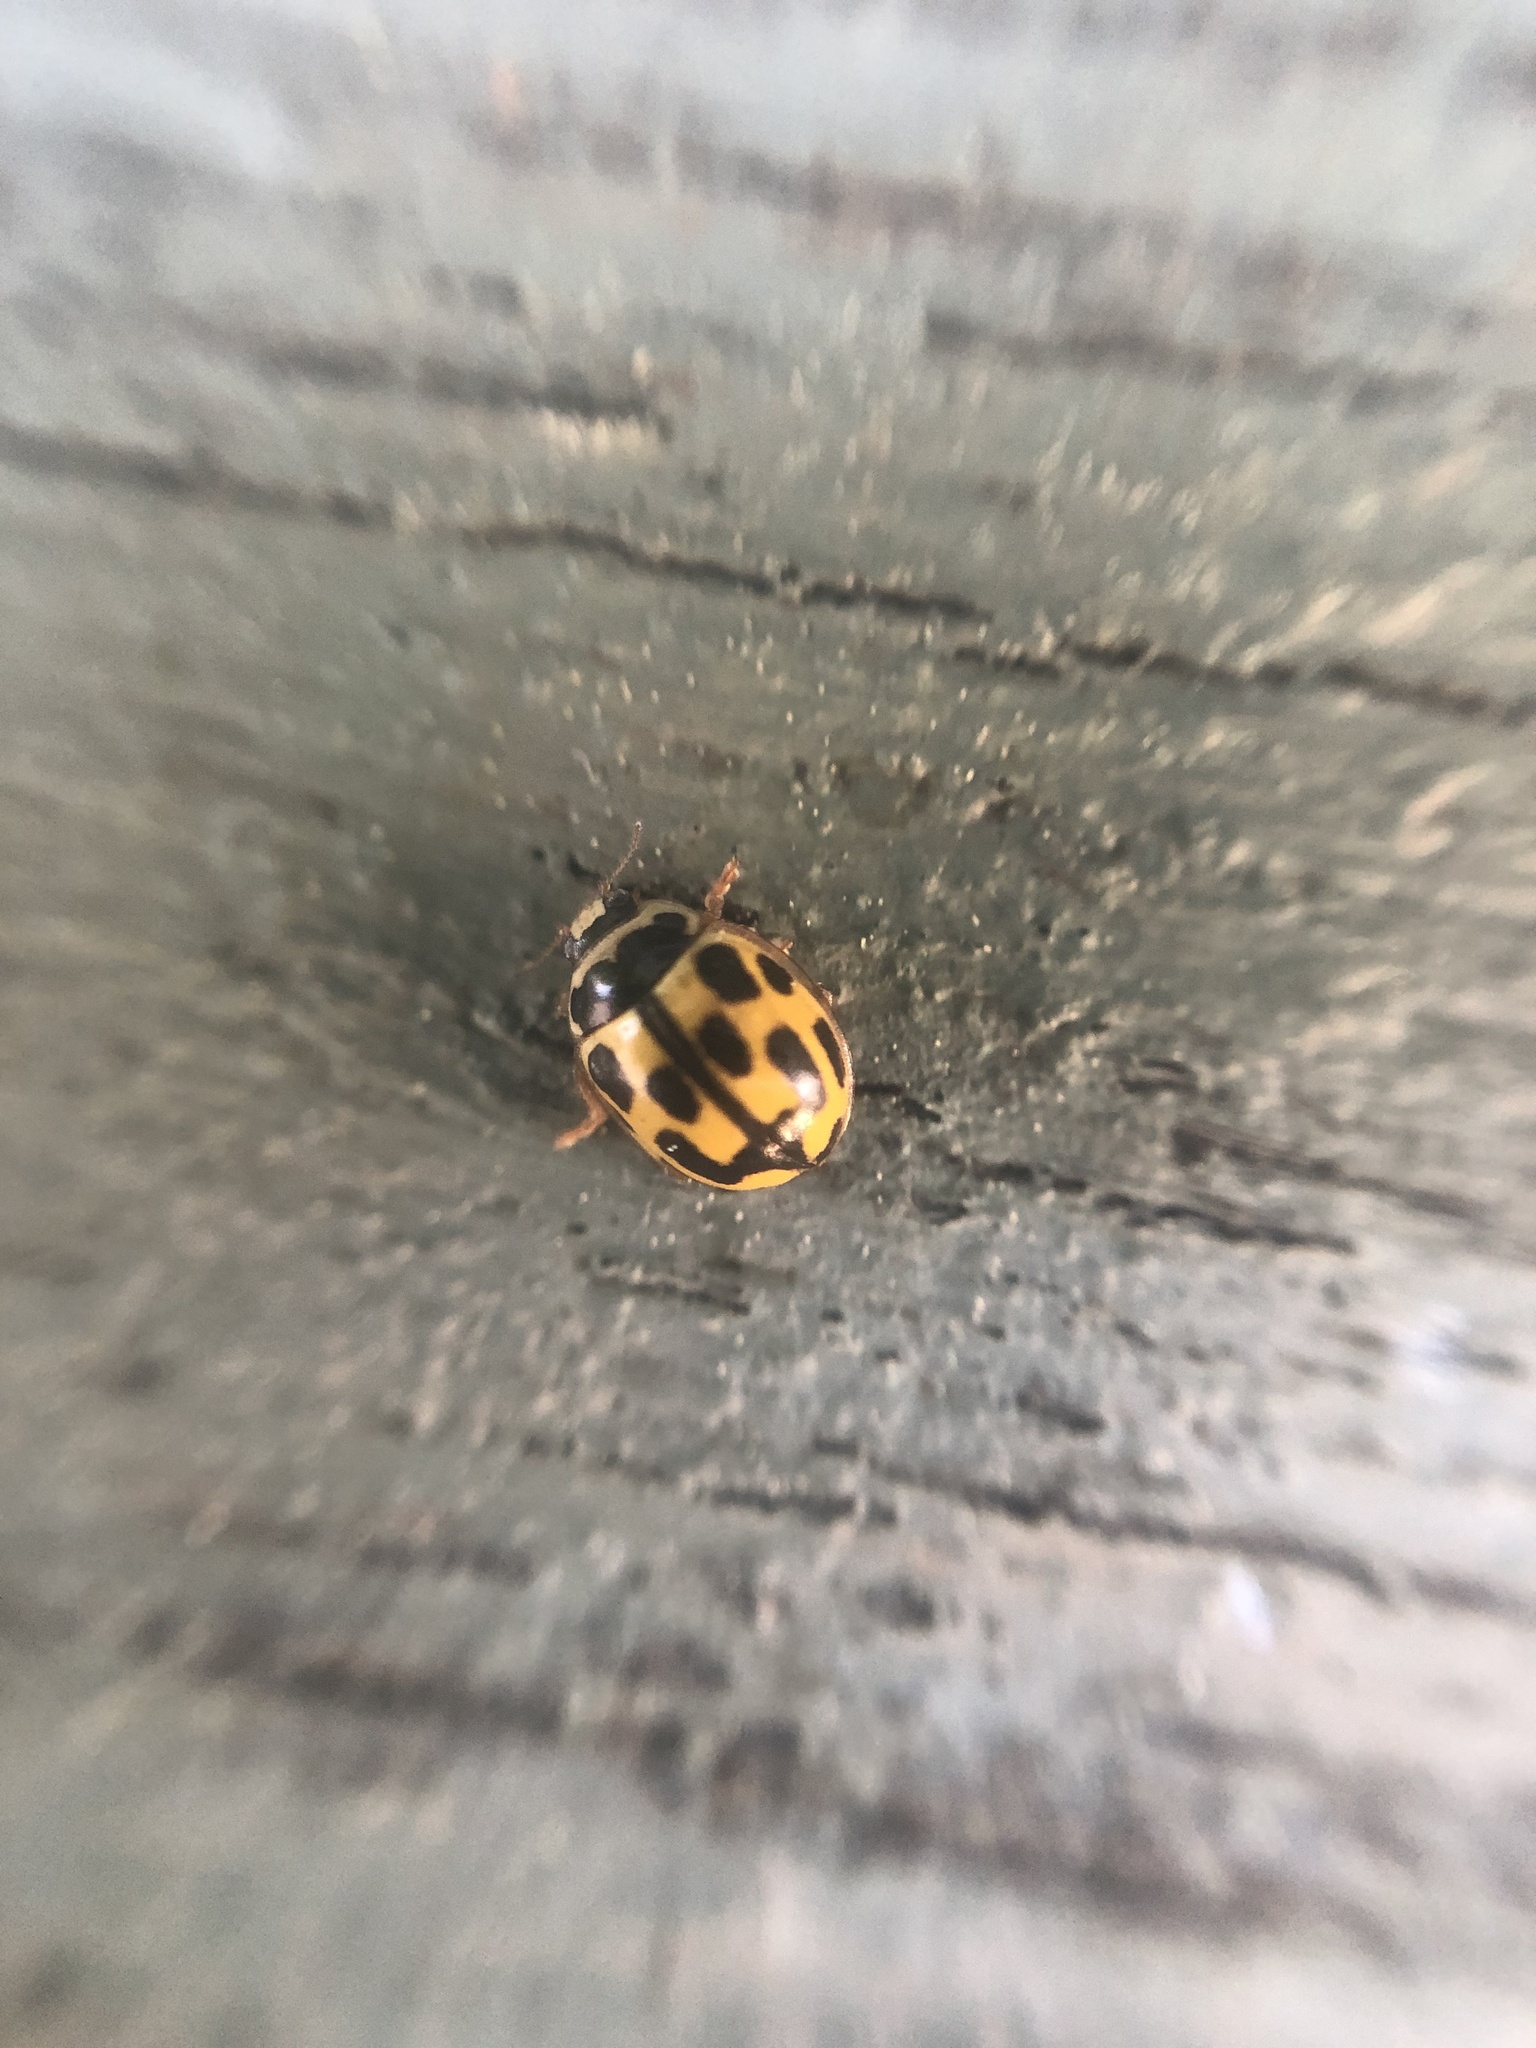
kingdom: Animalia
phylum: Arthropoda
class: Insecta
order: Coleoptera
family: Coccinellidae
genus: Propylaea
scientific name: Propylaea quatuordecimpunctata
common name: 14-spotted ladybird beetle
